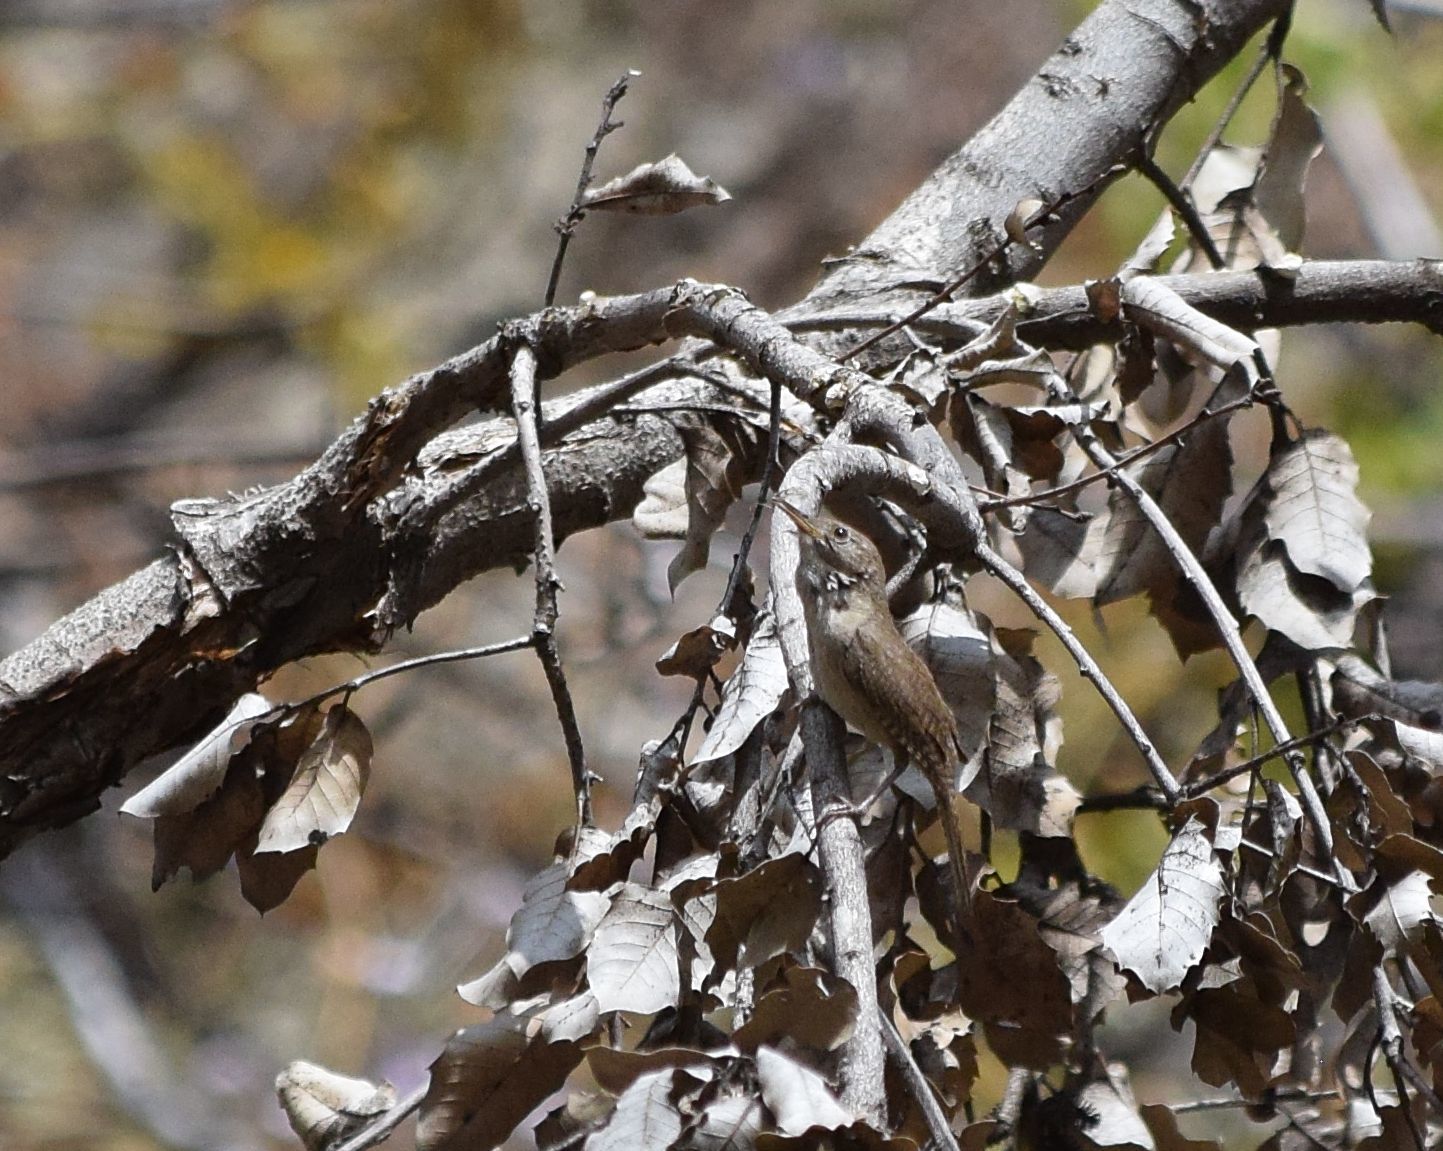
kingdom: Animalia
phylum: Chordata
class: Aves
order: Passeriformes
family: Troglodytidae
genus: Troglodytes
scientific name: Troglodytes aedon
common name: House wren
